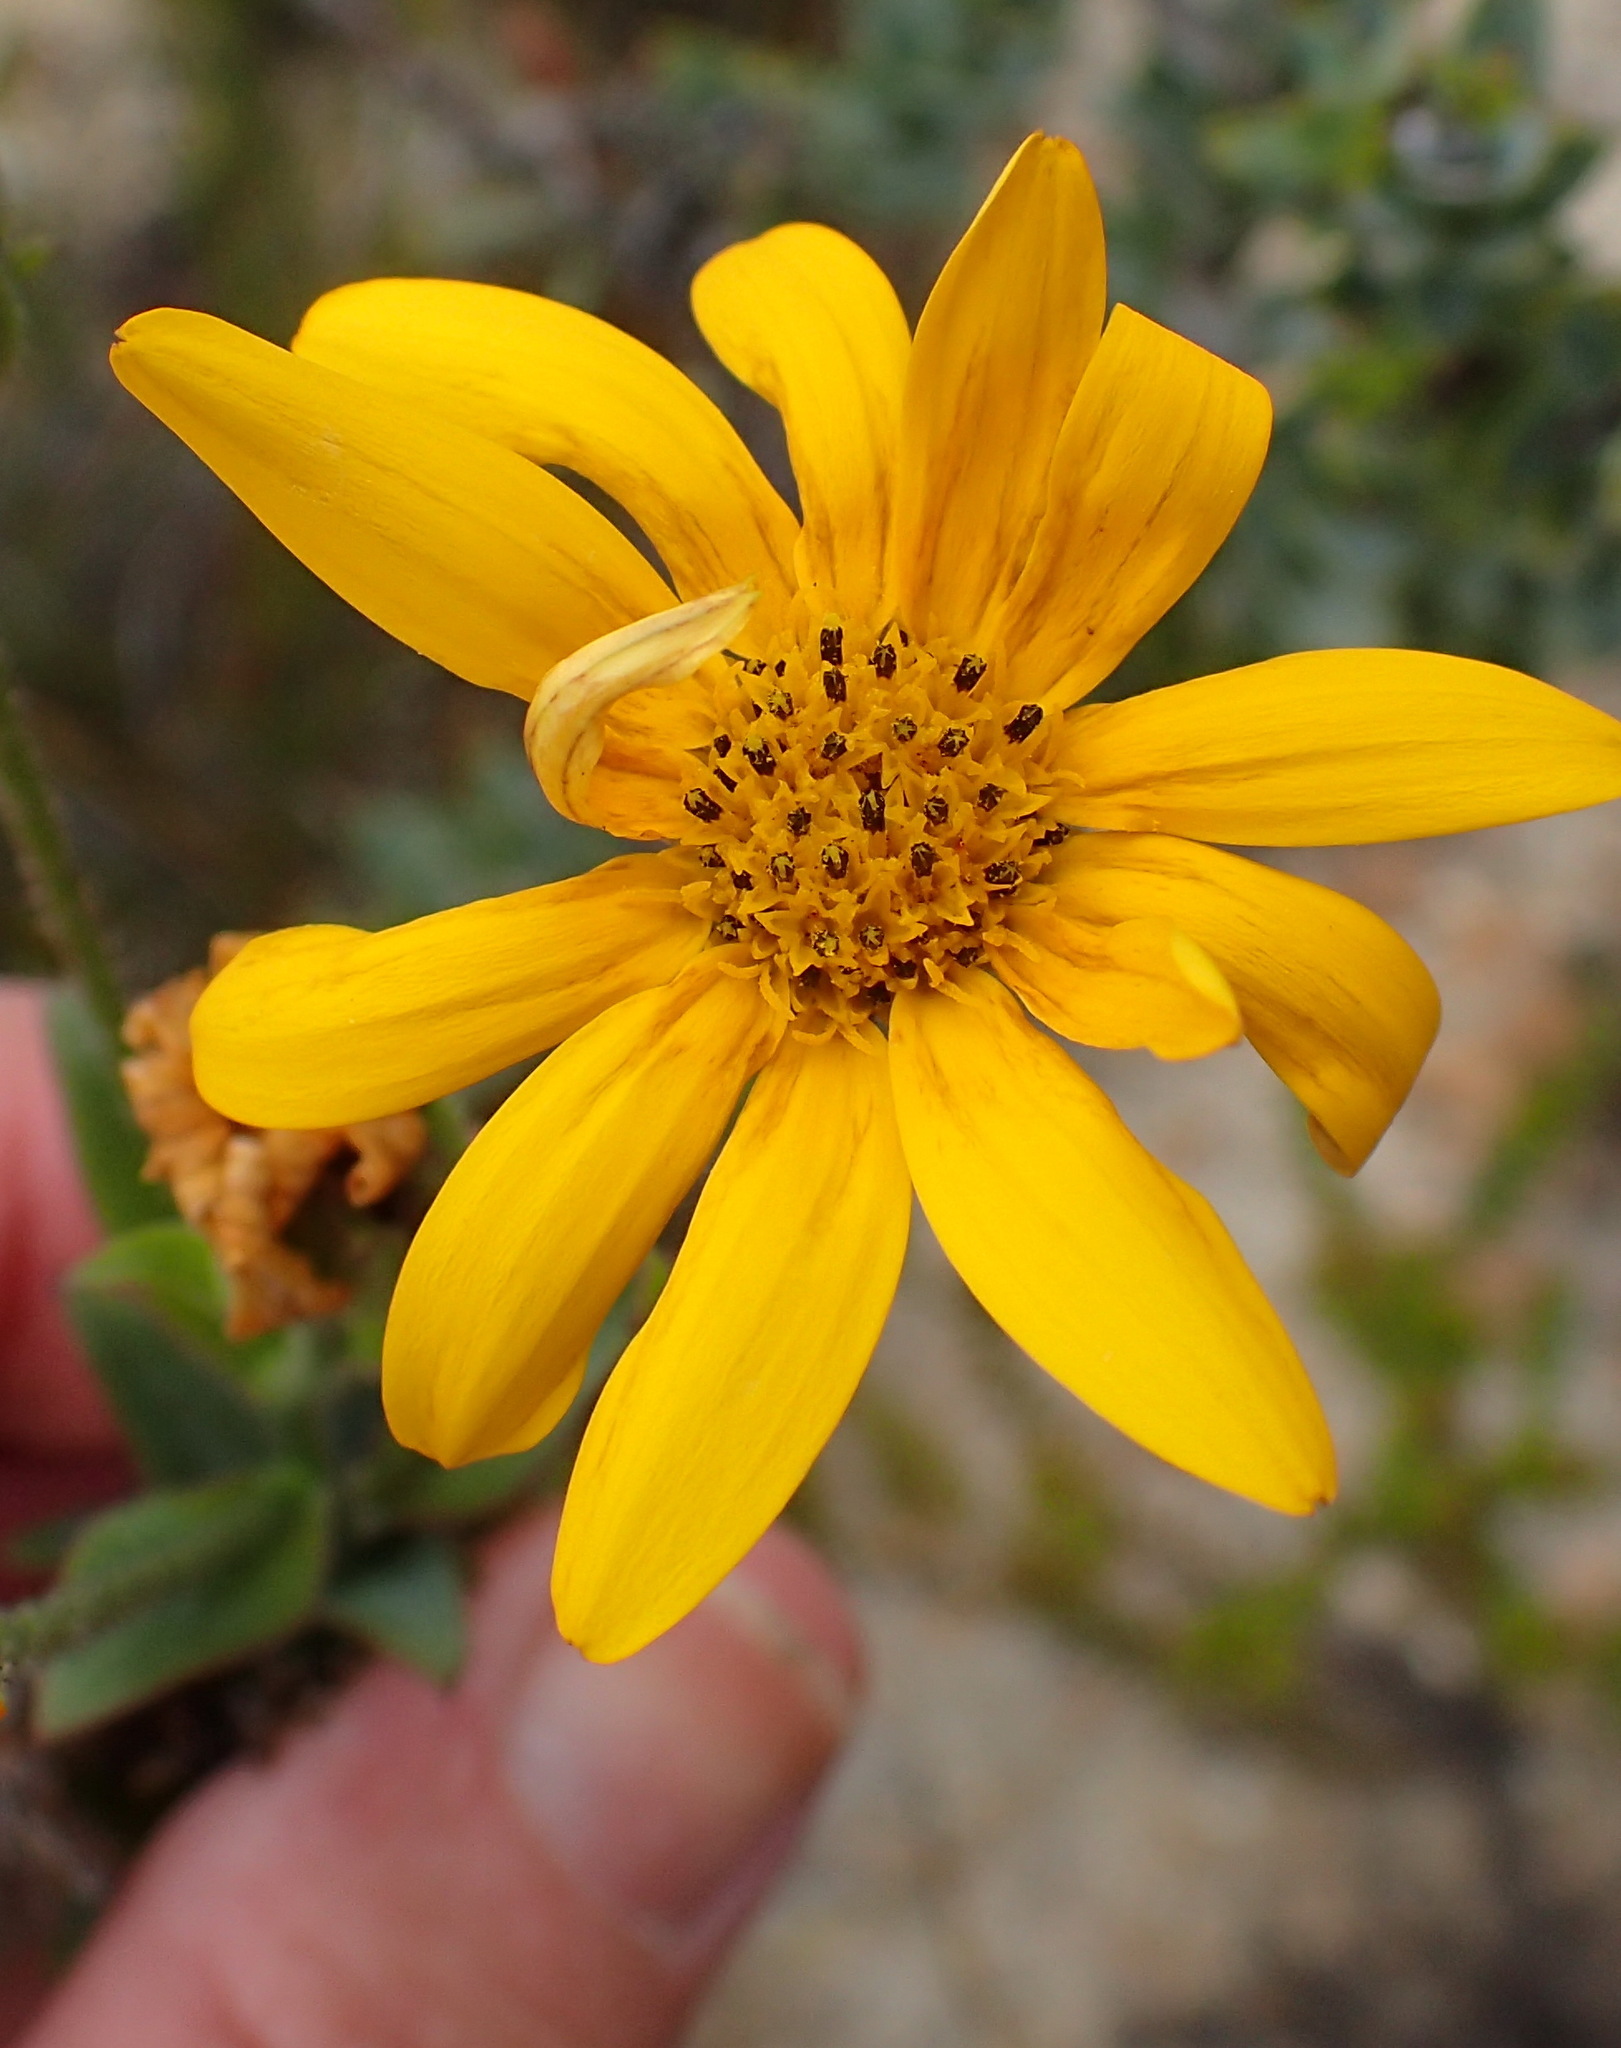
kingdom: Plantae
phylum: Tracheophyta
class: Magnoliopsida
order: Asterales
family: Asteraceae
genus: Osteospermum
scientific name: Osteospermum polygaloides
